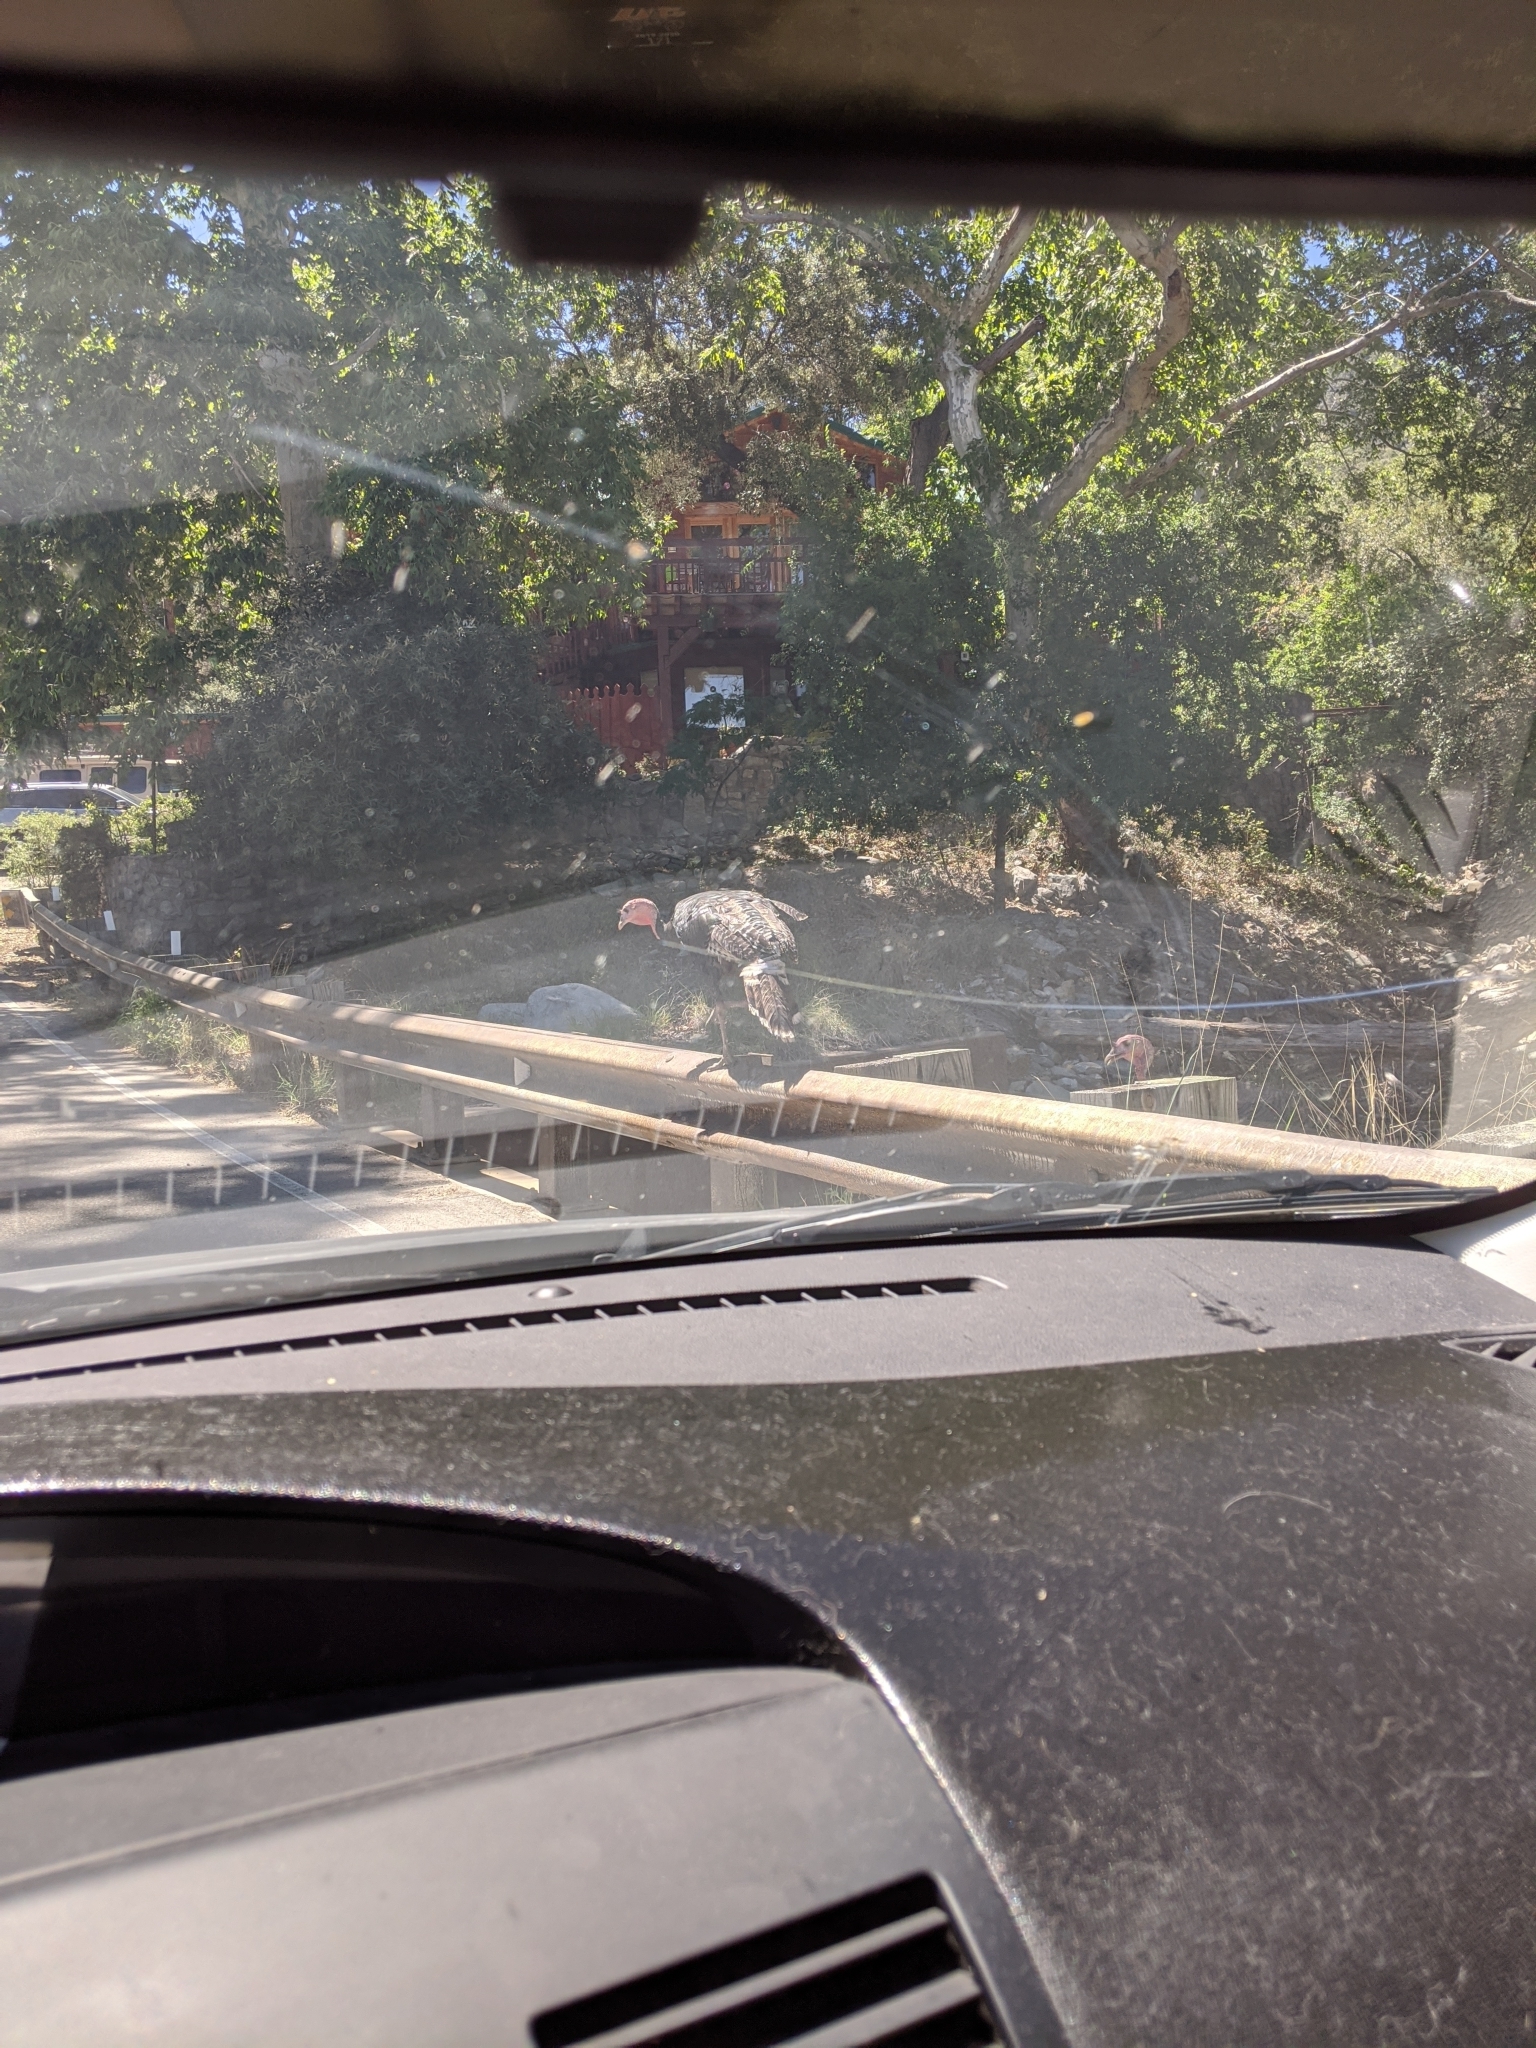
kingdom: Animalia
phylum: Chordata
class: Aves
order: Galliformes
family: Phasianidae
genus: Meleagris
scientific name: Meleagris gallopavo
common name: Wild turkey
